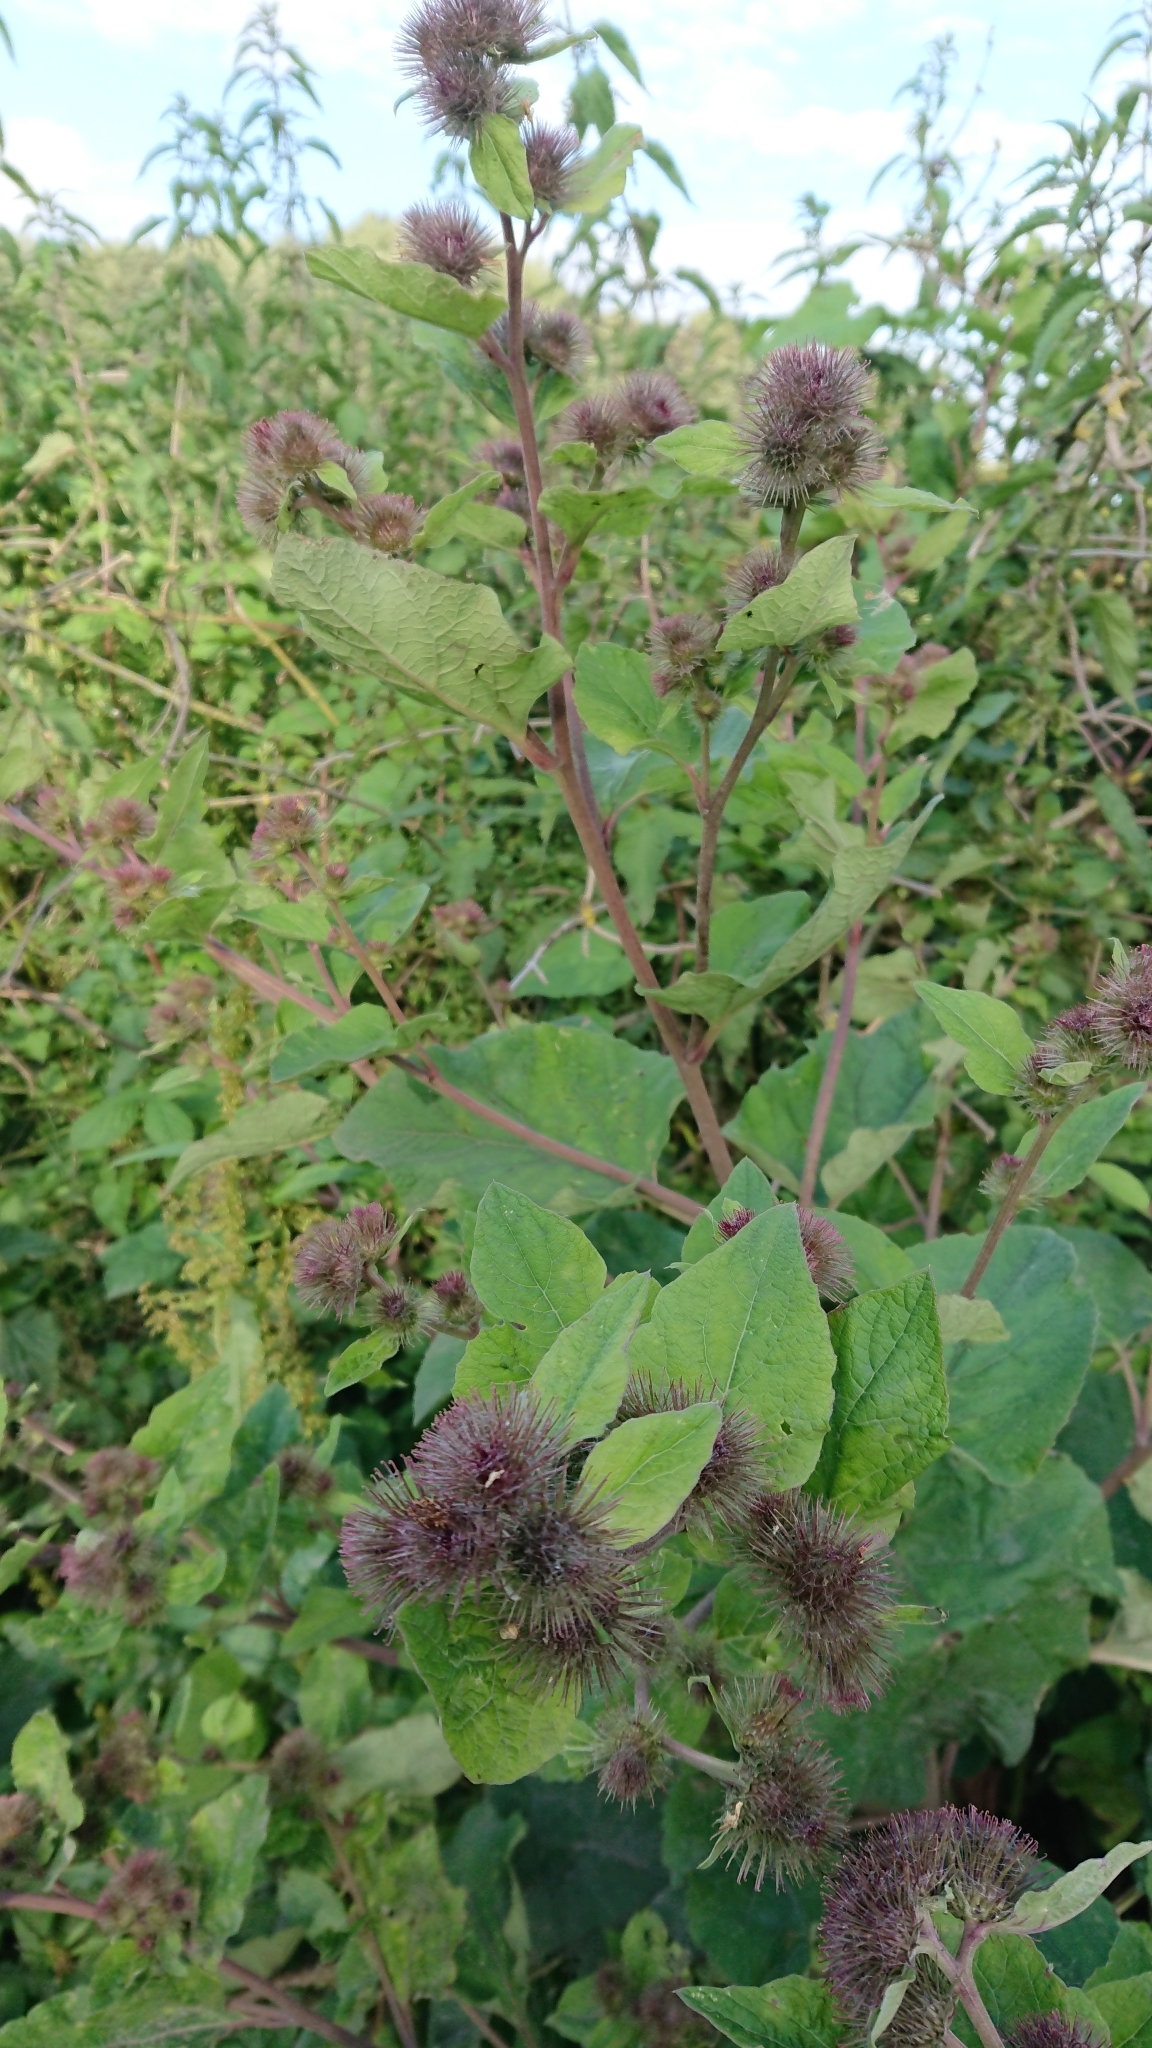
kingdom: Plantae
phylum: Tracheophyta
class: Magnoliopsida
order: Asterales
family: Asteraceae
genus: Arctium
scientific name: Arctium minus
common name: Lesser burdock
